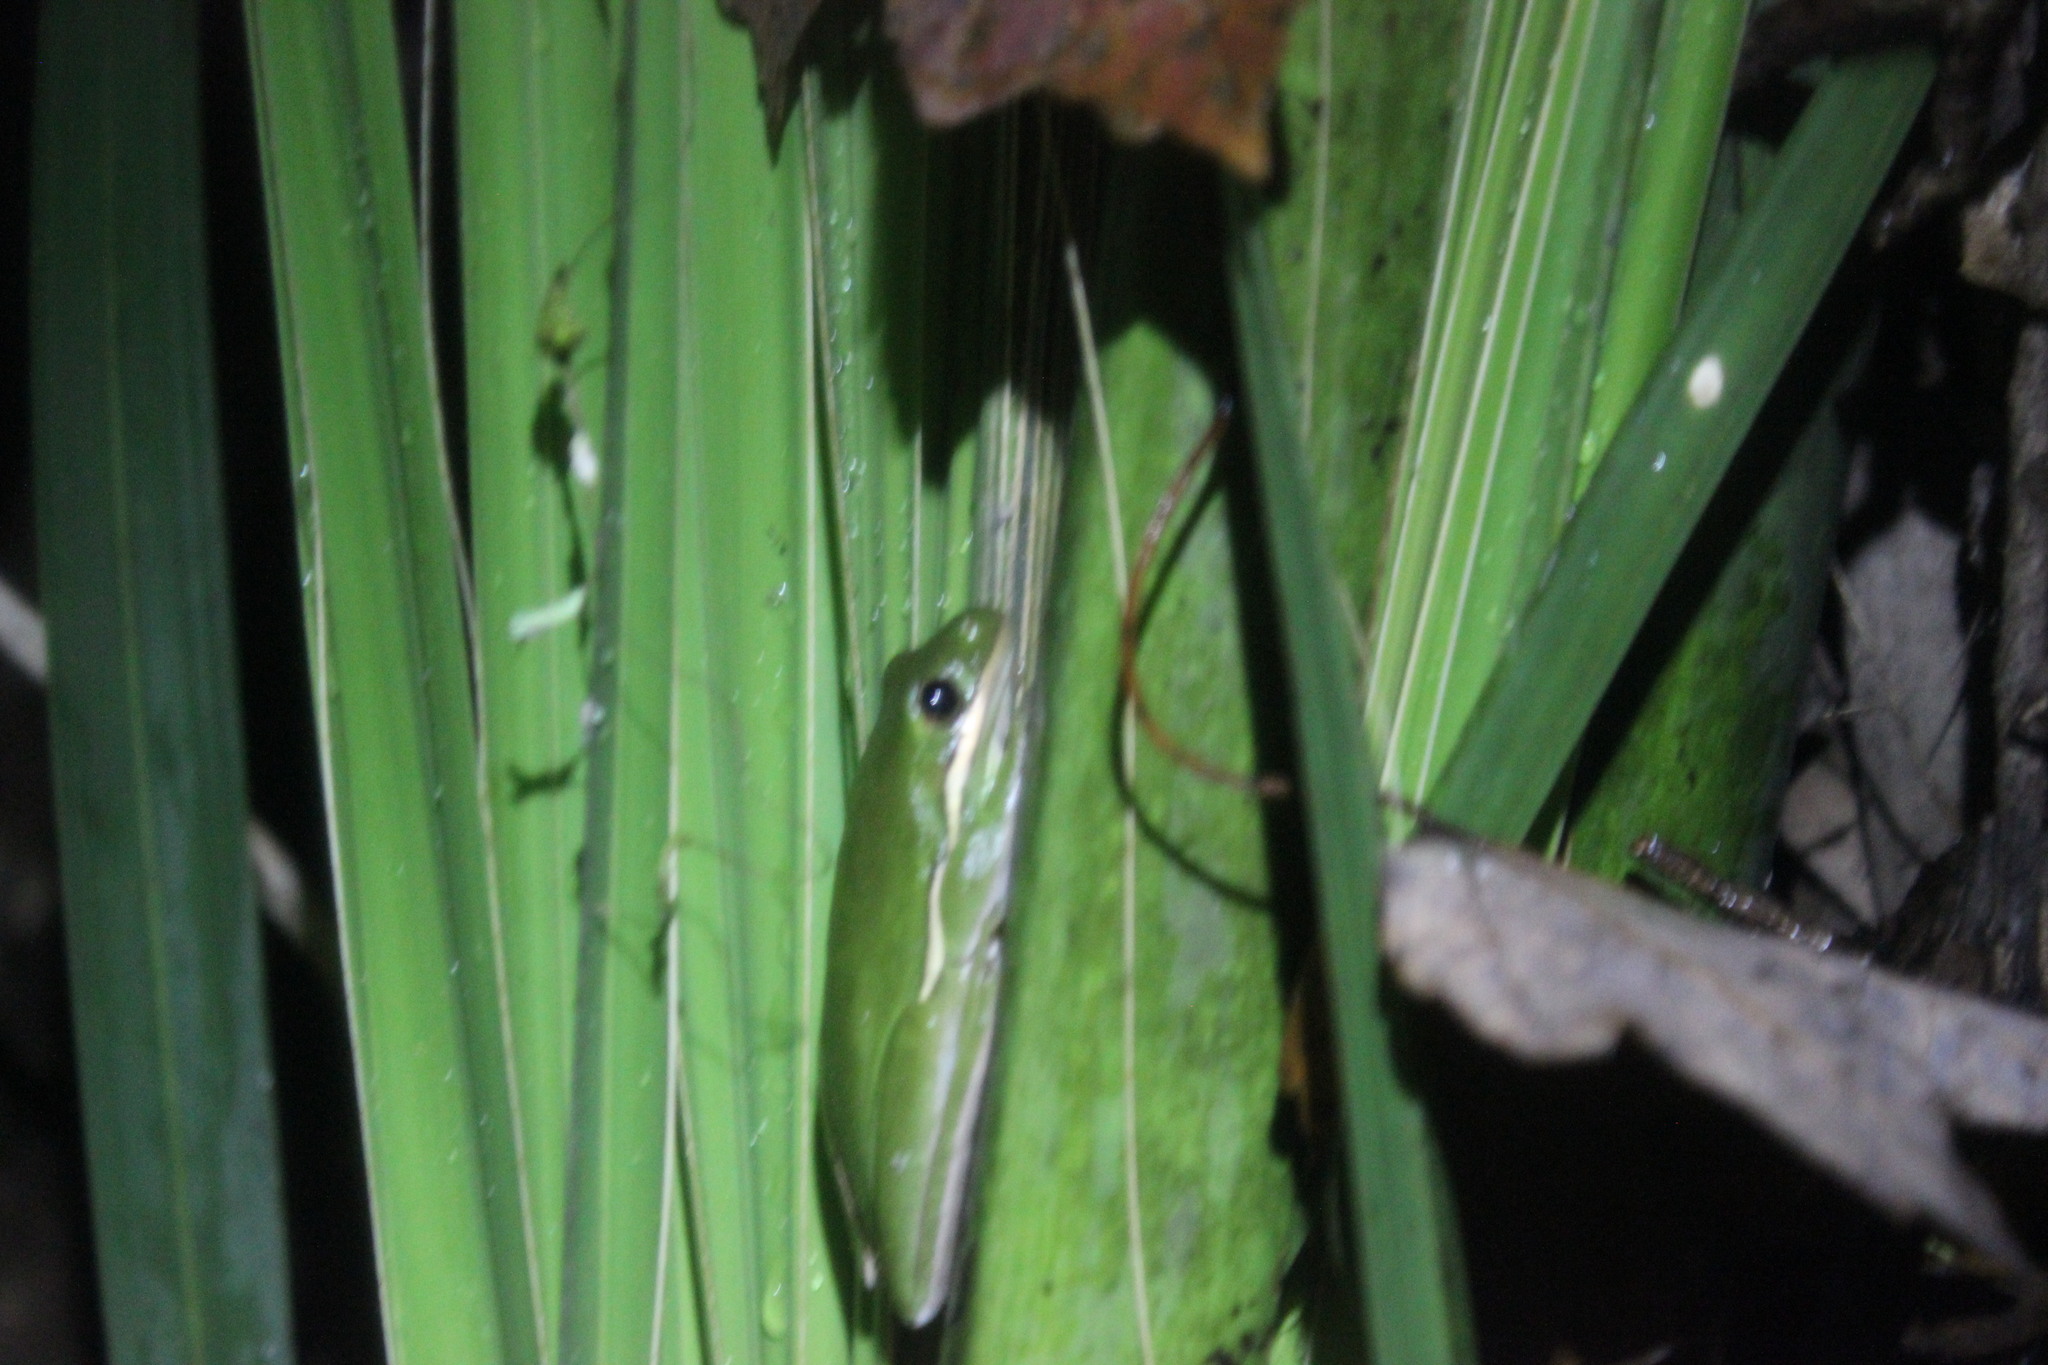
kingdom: Animalia
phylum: Chordata
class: Amphibia
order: Anura
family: Hylidae
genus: Dryophytes
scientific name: Dryophytes cinereus
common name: Green treefrog
